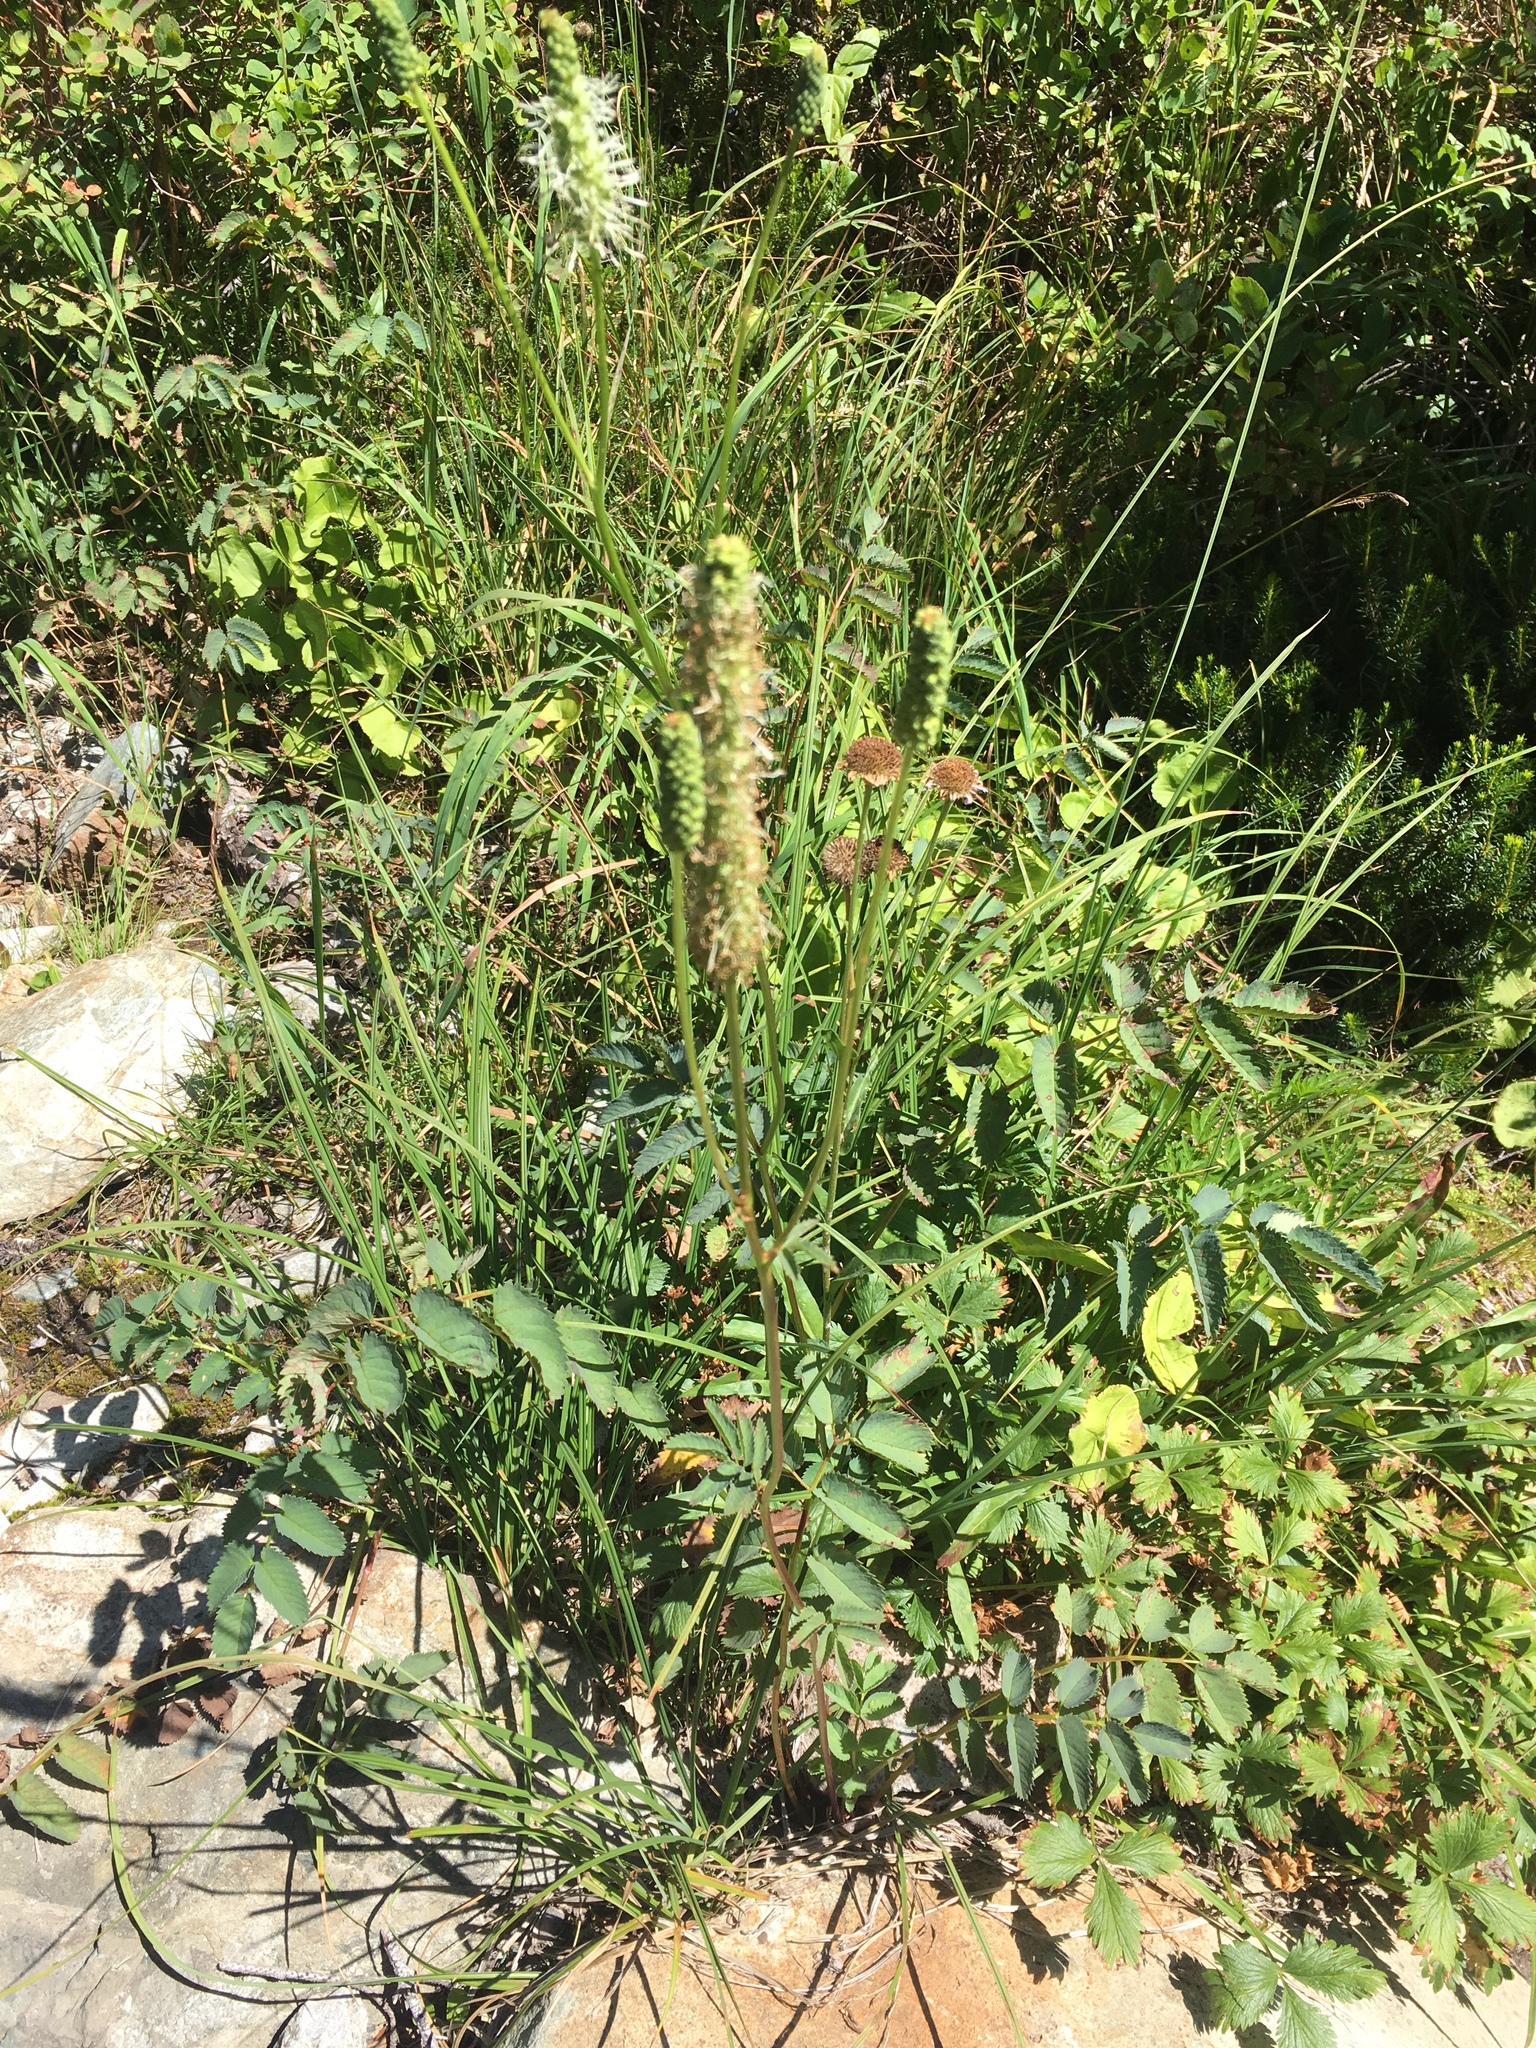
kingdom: Plantae
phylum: Tracheophyta
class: Magnoliopsida
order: Rosales
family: Rosaceae
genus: Sanguisorba
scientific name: Sanguisorba stipulata
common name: Sitka burnet
